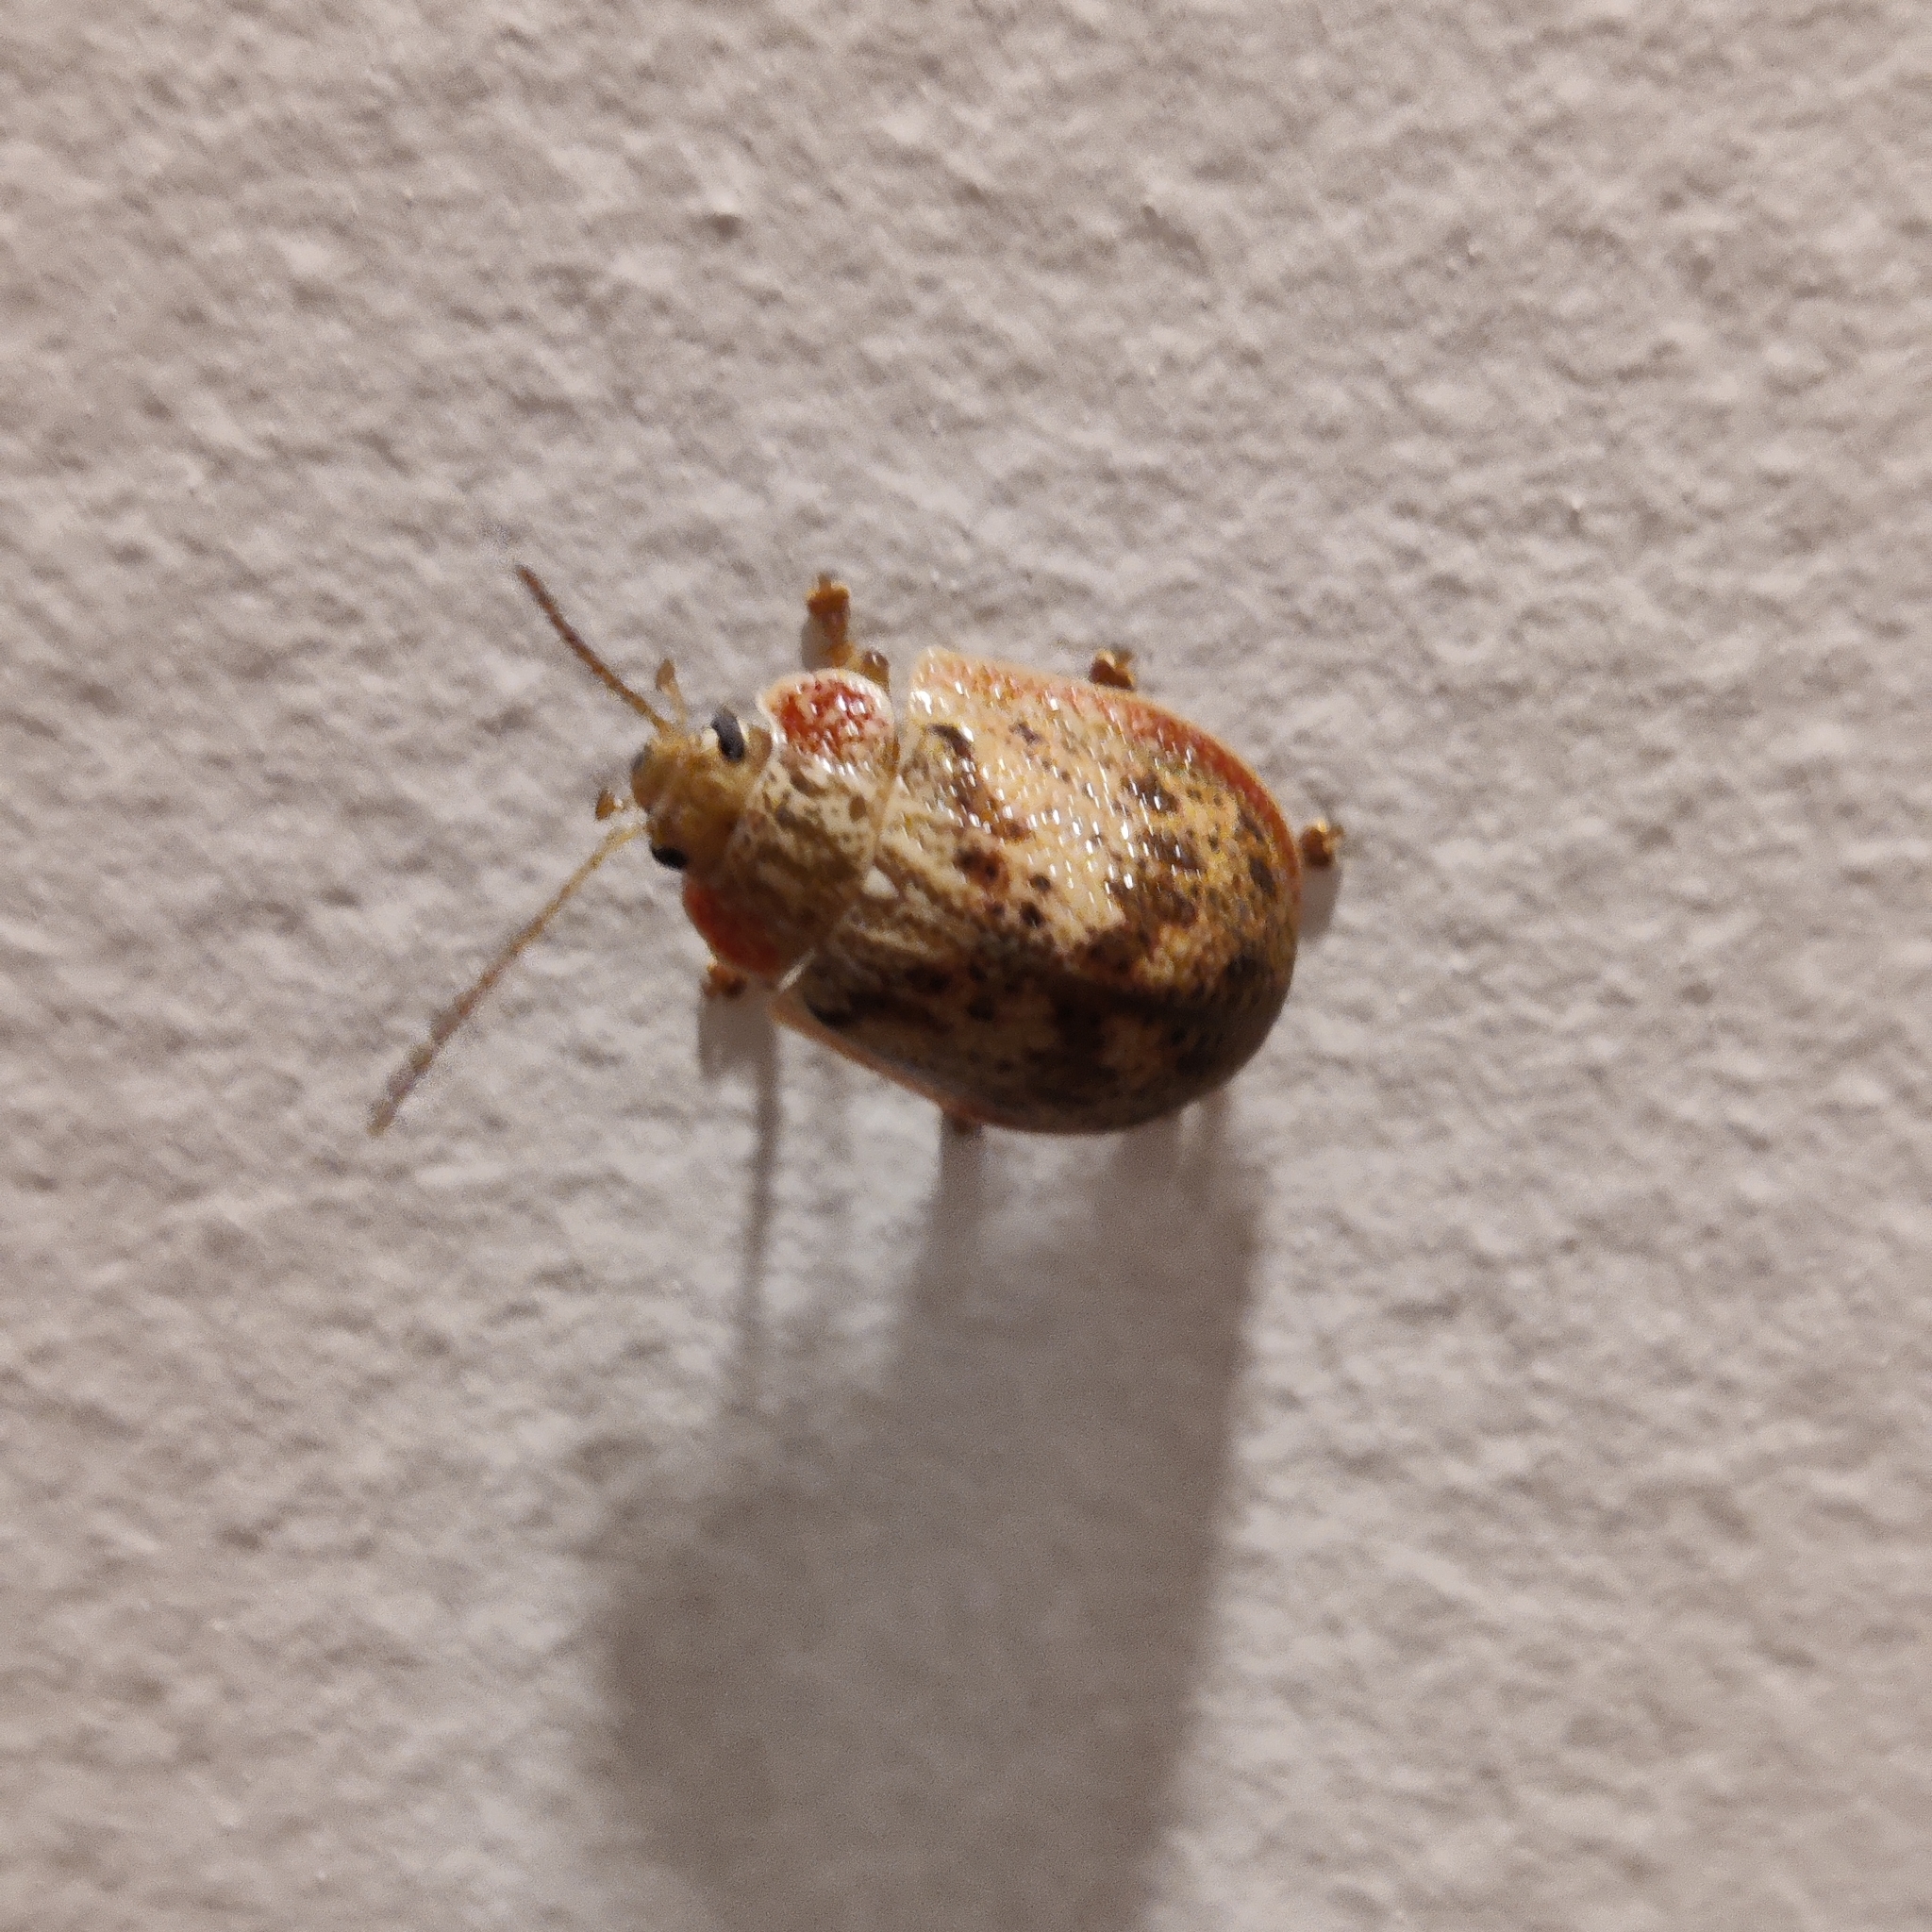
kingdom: Animalia
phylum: Arthropoda
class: Insecta
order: Coleoptera
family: Chrysomelidae
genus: Paropsis
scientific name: Paropsis charybdis
